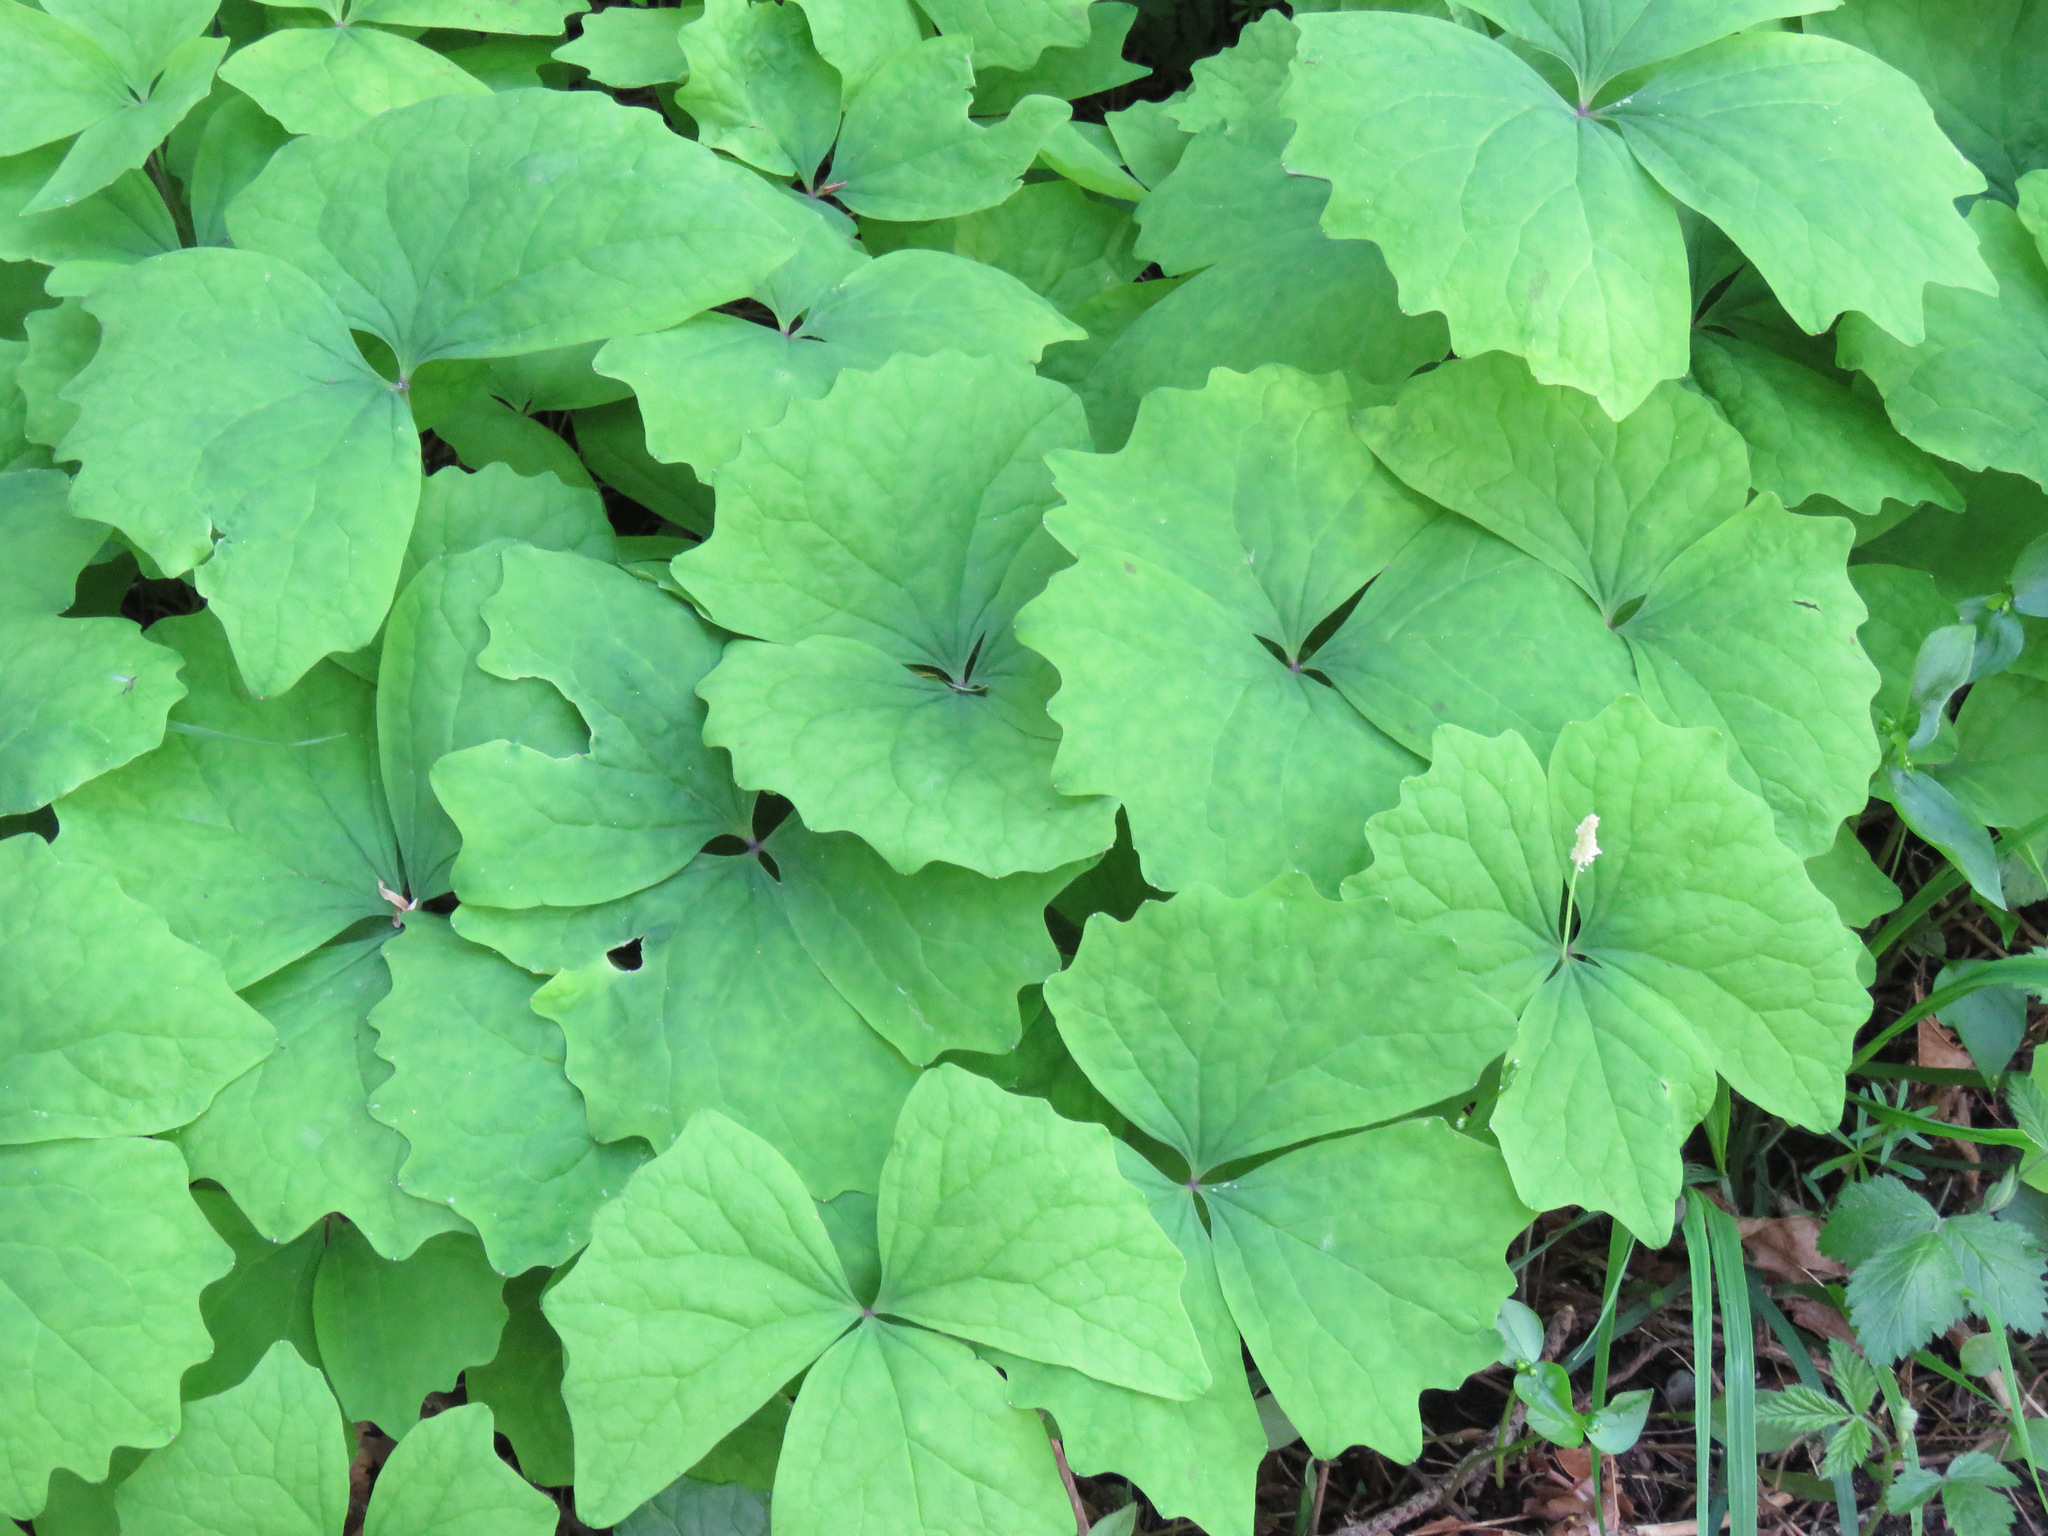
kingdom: Plantae
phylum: Tracheophyta
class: Magnoliopsida
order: Ranunculales
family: Berberidaceae
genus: Achlys
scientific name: Achlys triphylla
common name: Vanilla-leaf
